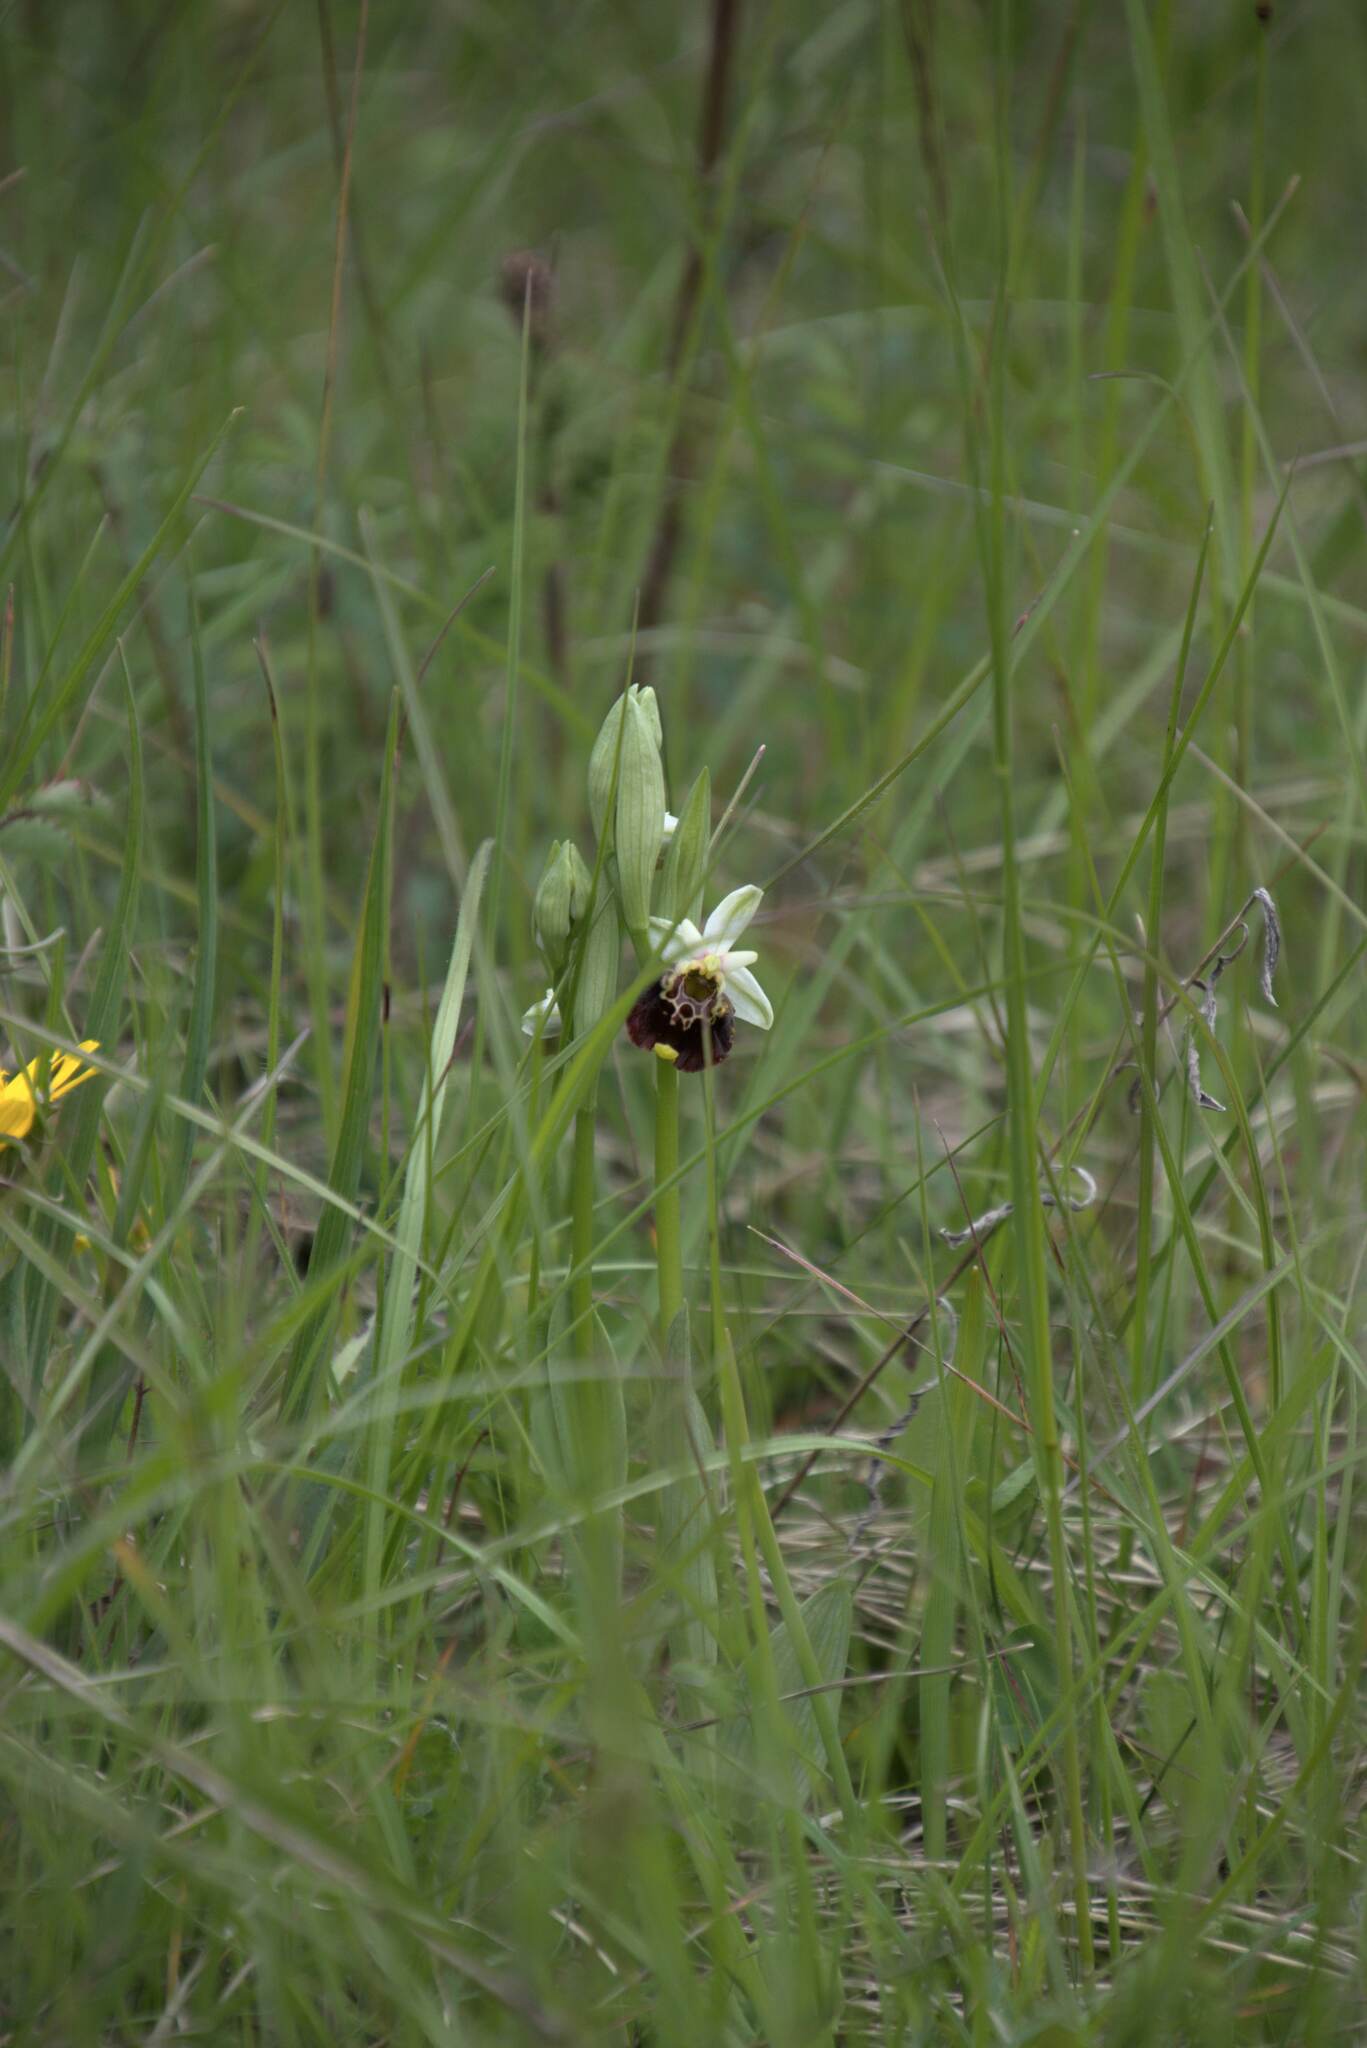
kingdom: Plantae
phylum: Tracheophyta
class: Liliopsida
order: Asparagales
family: Orchidaceae
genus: Ophrys
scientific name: Ophrys holosericea
